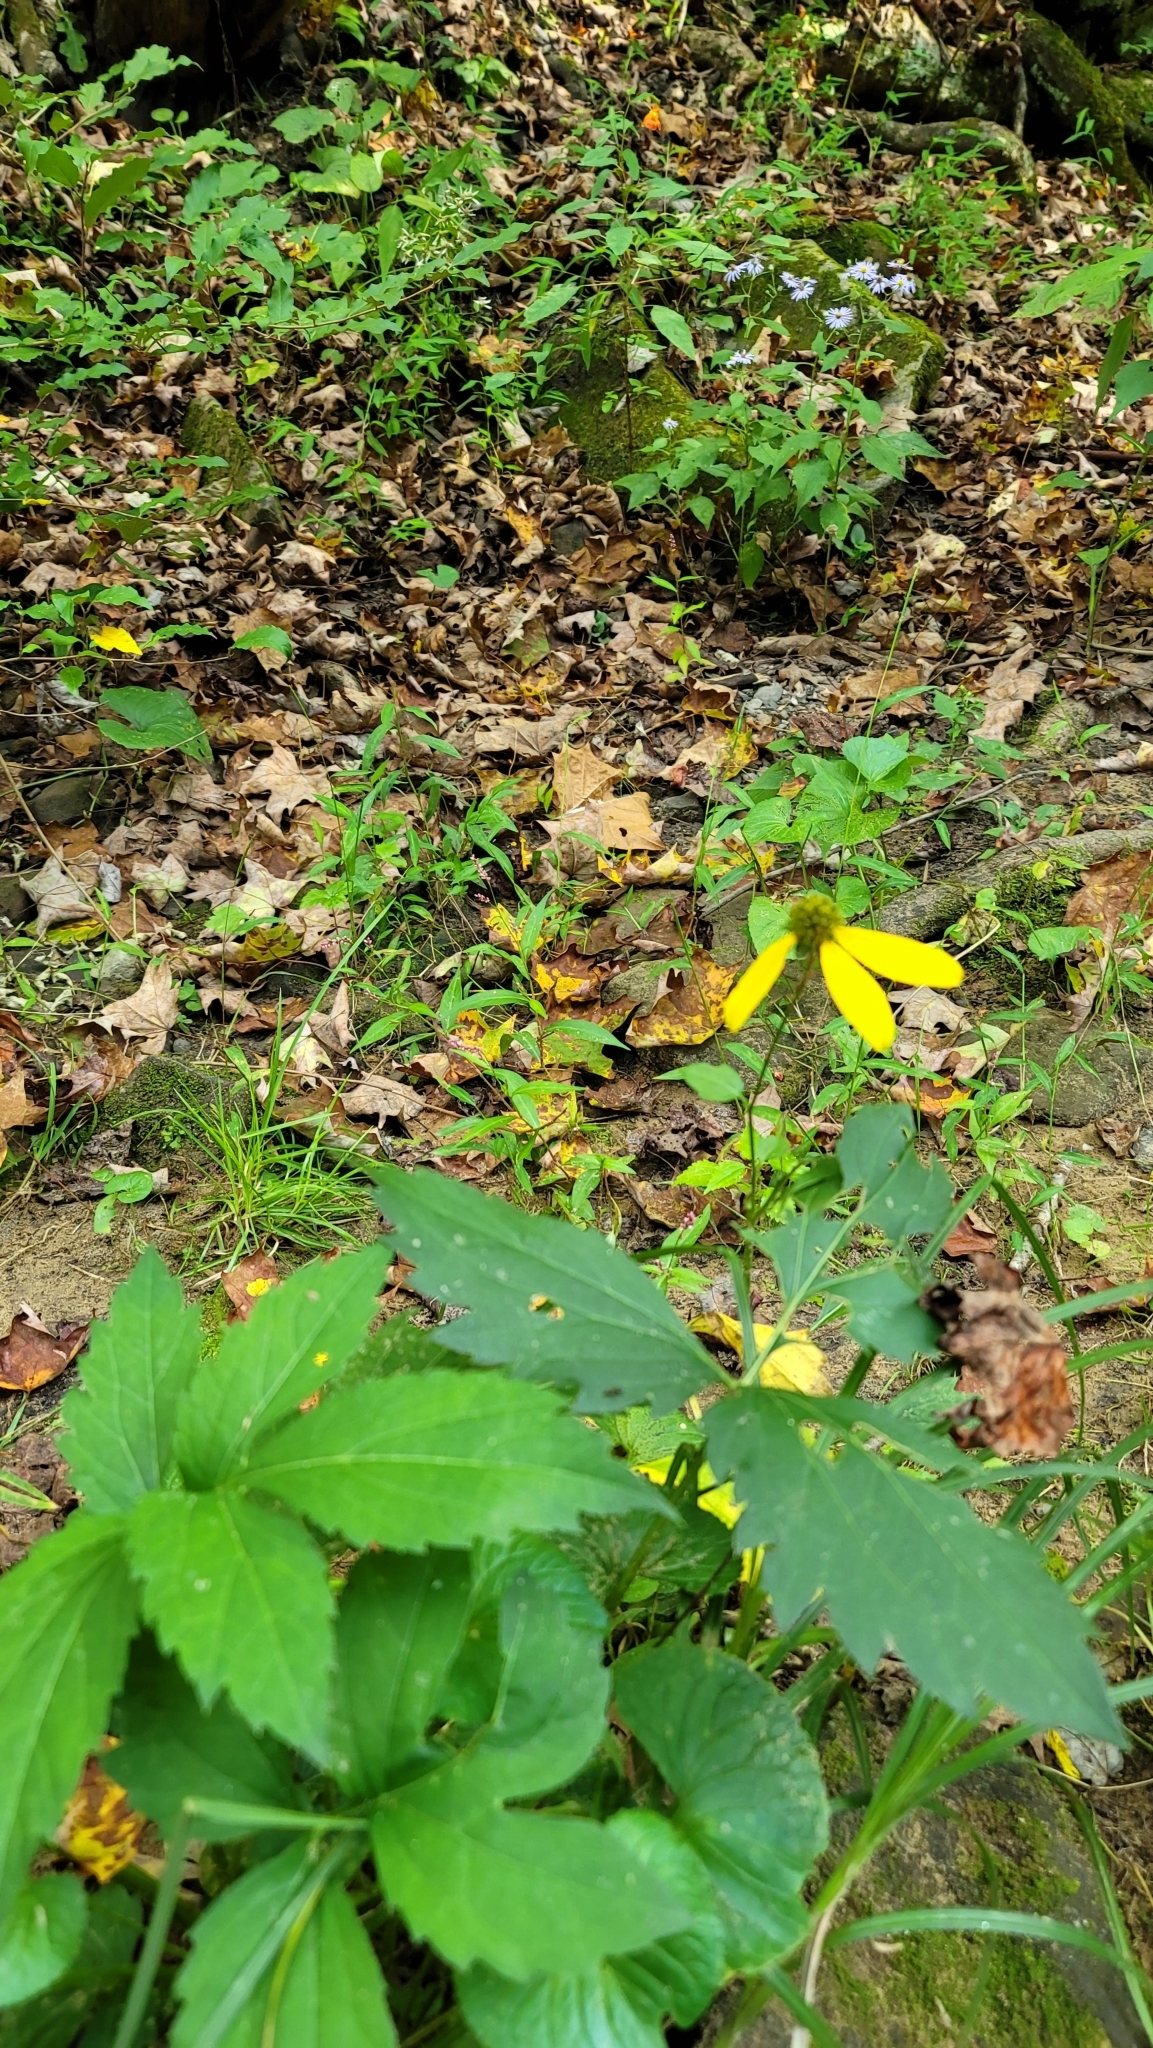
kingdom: Plantae
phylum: Tracheophyta
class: Magnoliopsida
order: Asterales
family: Asteraceae
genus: Rudbeckia
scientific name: Rudbeckia laciniata
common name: Coneflower
